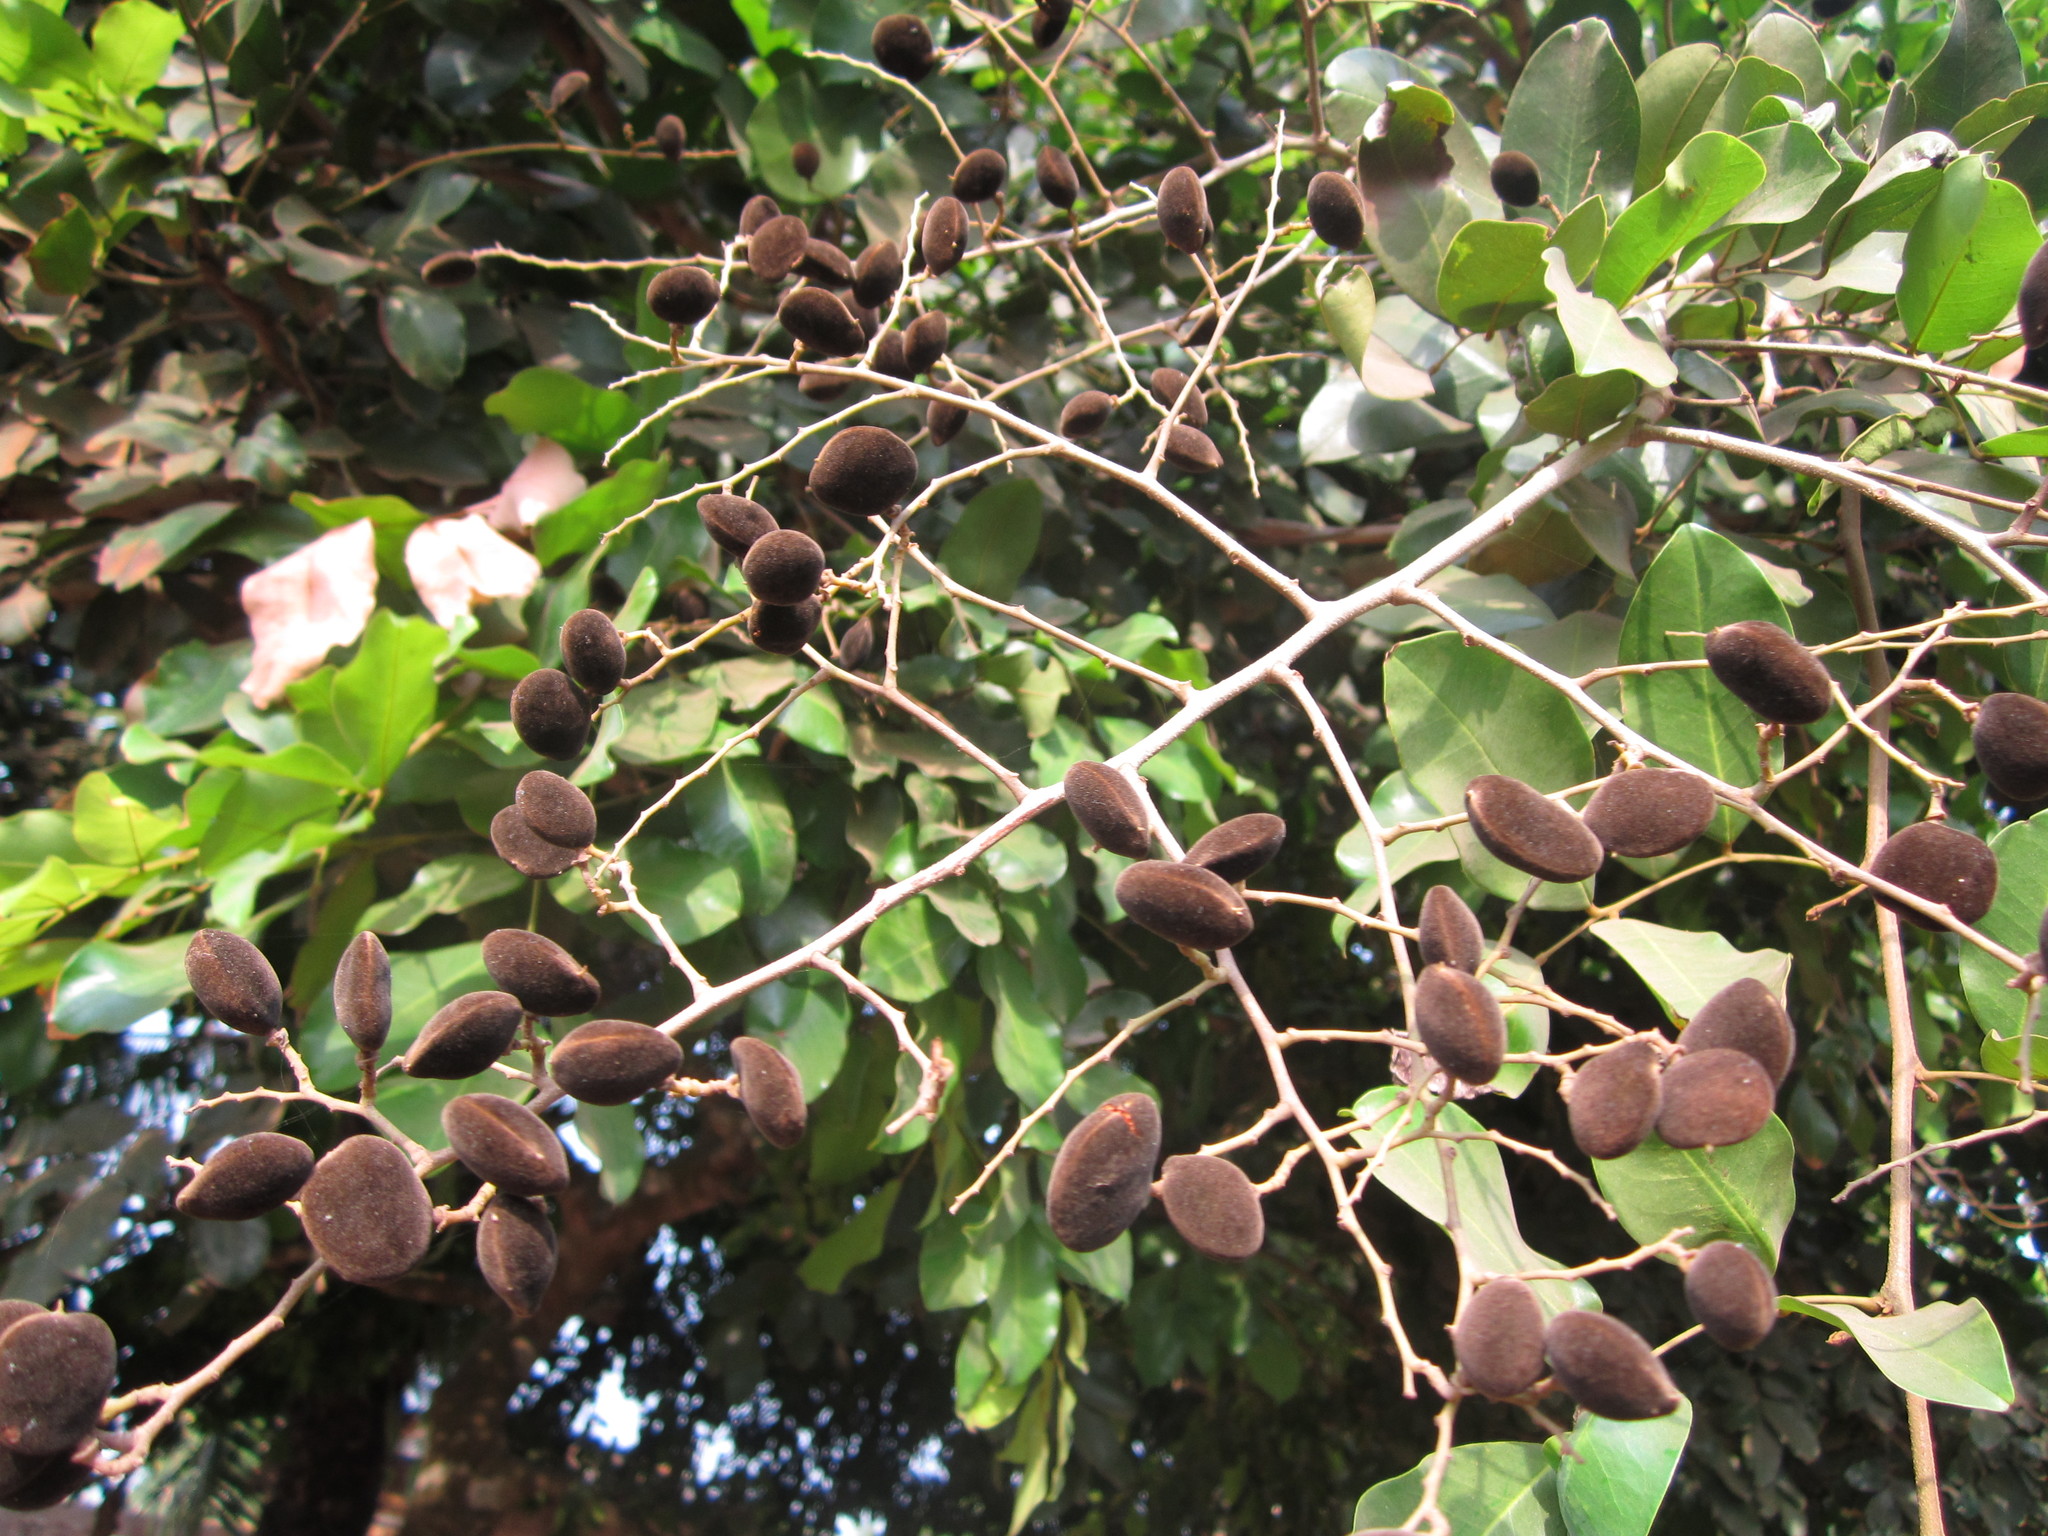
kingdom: Plantae
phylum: Tracheophyta
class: Magnoliopsida
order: Fabales
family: Fabaceae
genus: Dialium
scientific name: Dialium guineense
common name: Sierra leone-tamarind
